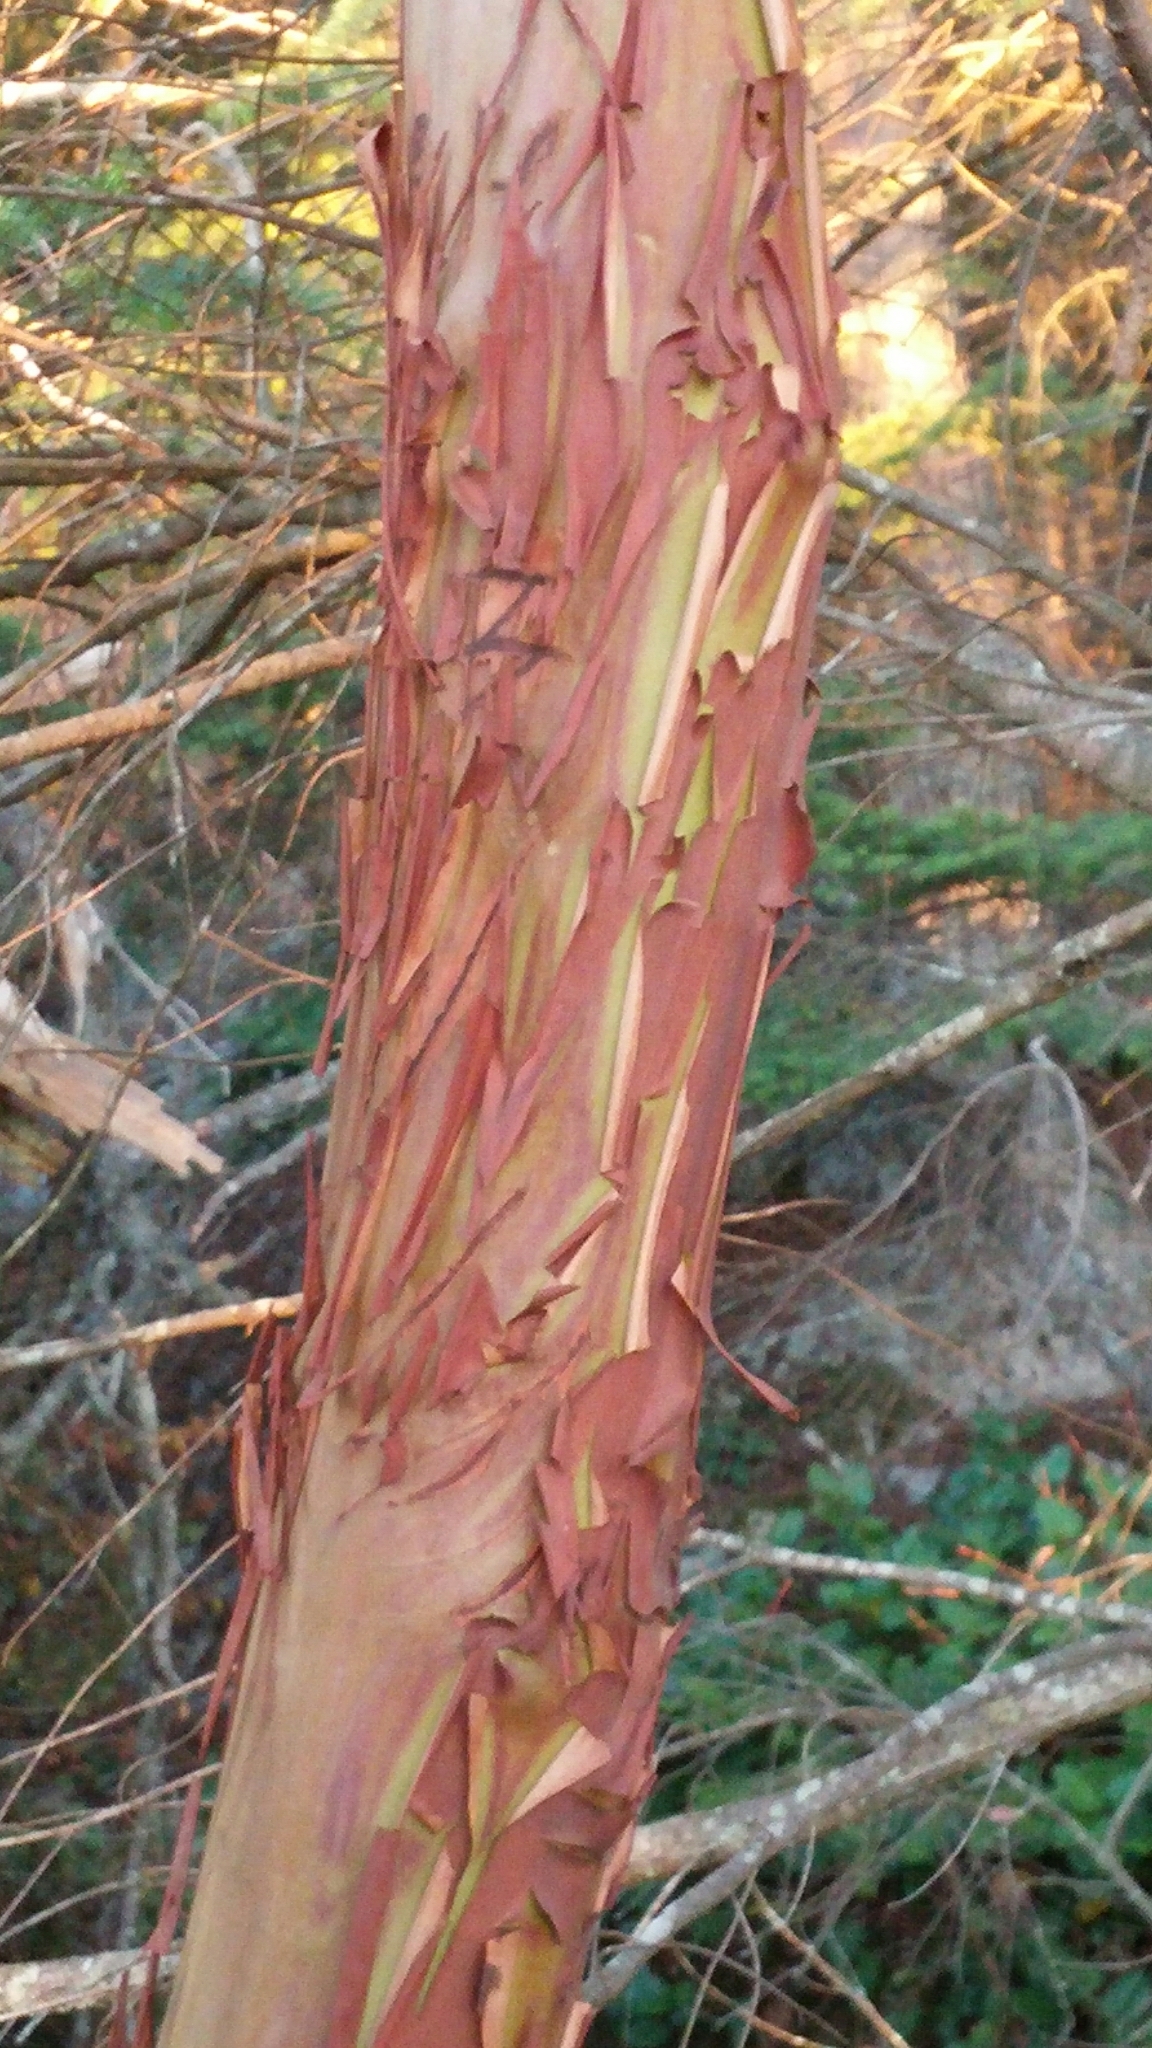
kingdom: Plantae
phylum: Tracheophyta
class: Magnoliopsida
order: Ericales
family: Ericaceae
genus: Arbutus
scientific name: Arbutus menziesii
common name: Pacific madrone
